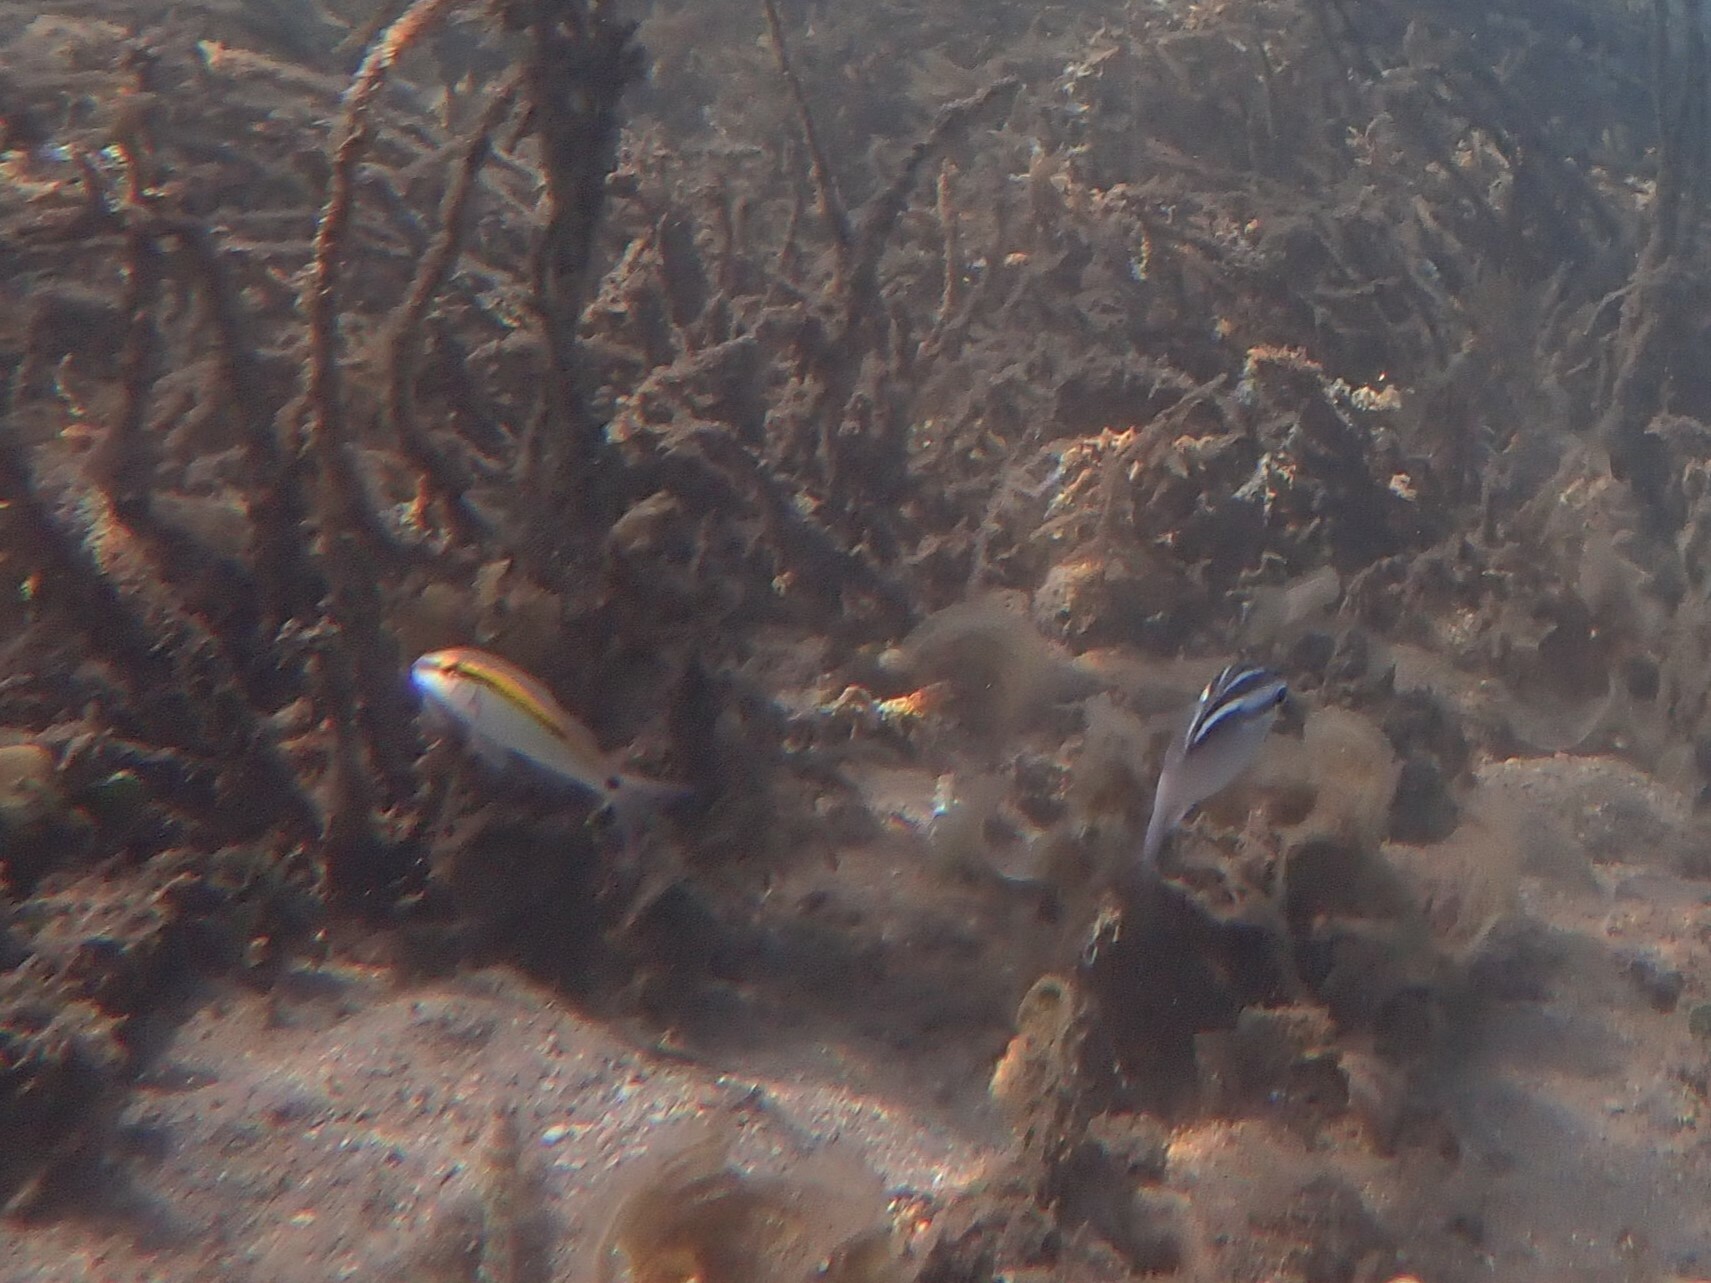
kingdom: Animalia
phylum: Chordata
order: Perciformes
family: Mullidae
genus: Parupeneus
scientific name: Parupeneus barberinus
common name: Dash-and-dot goatfish
